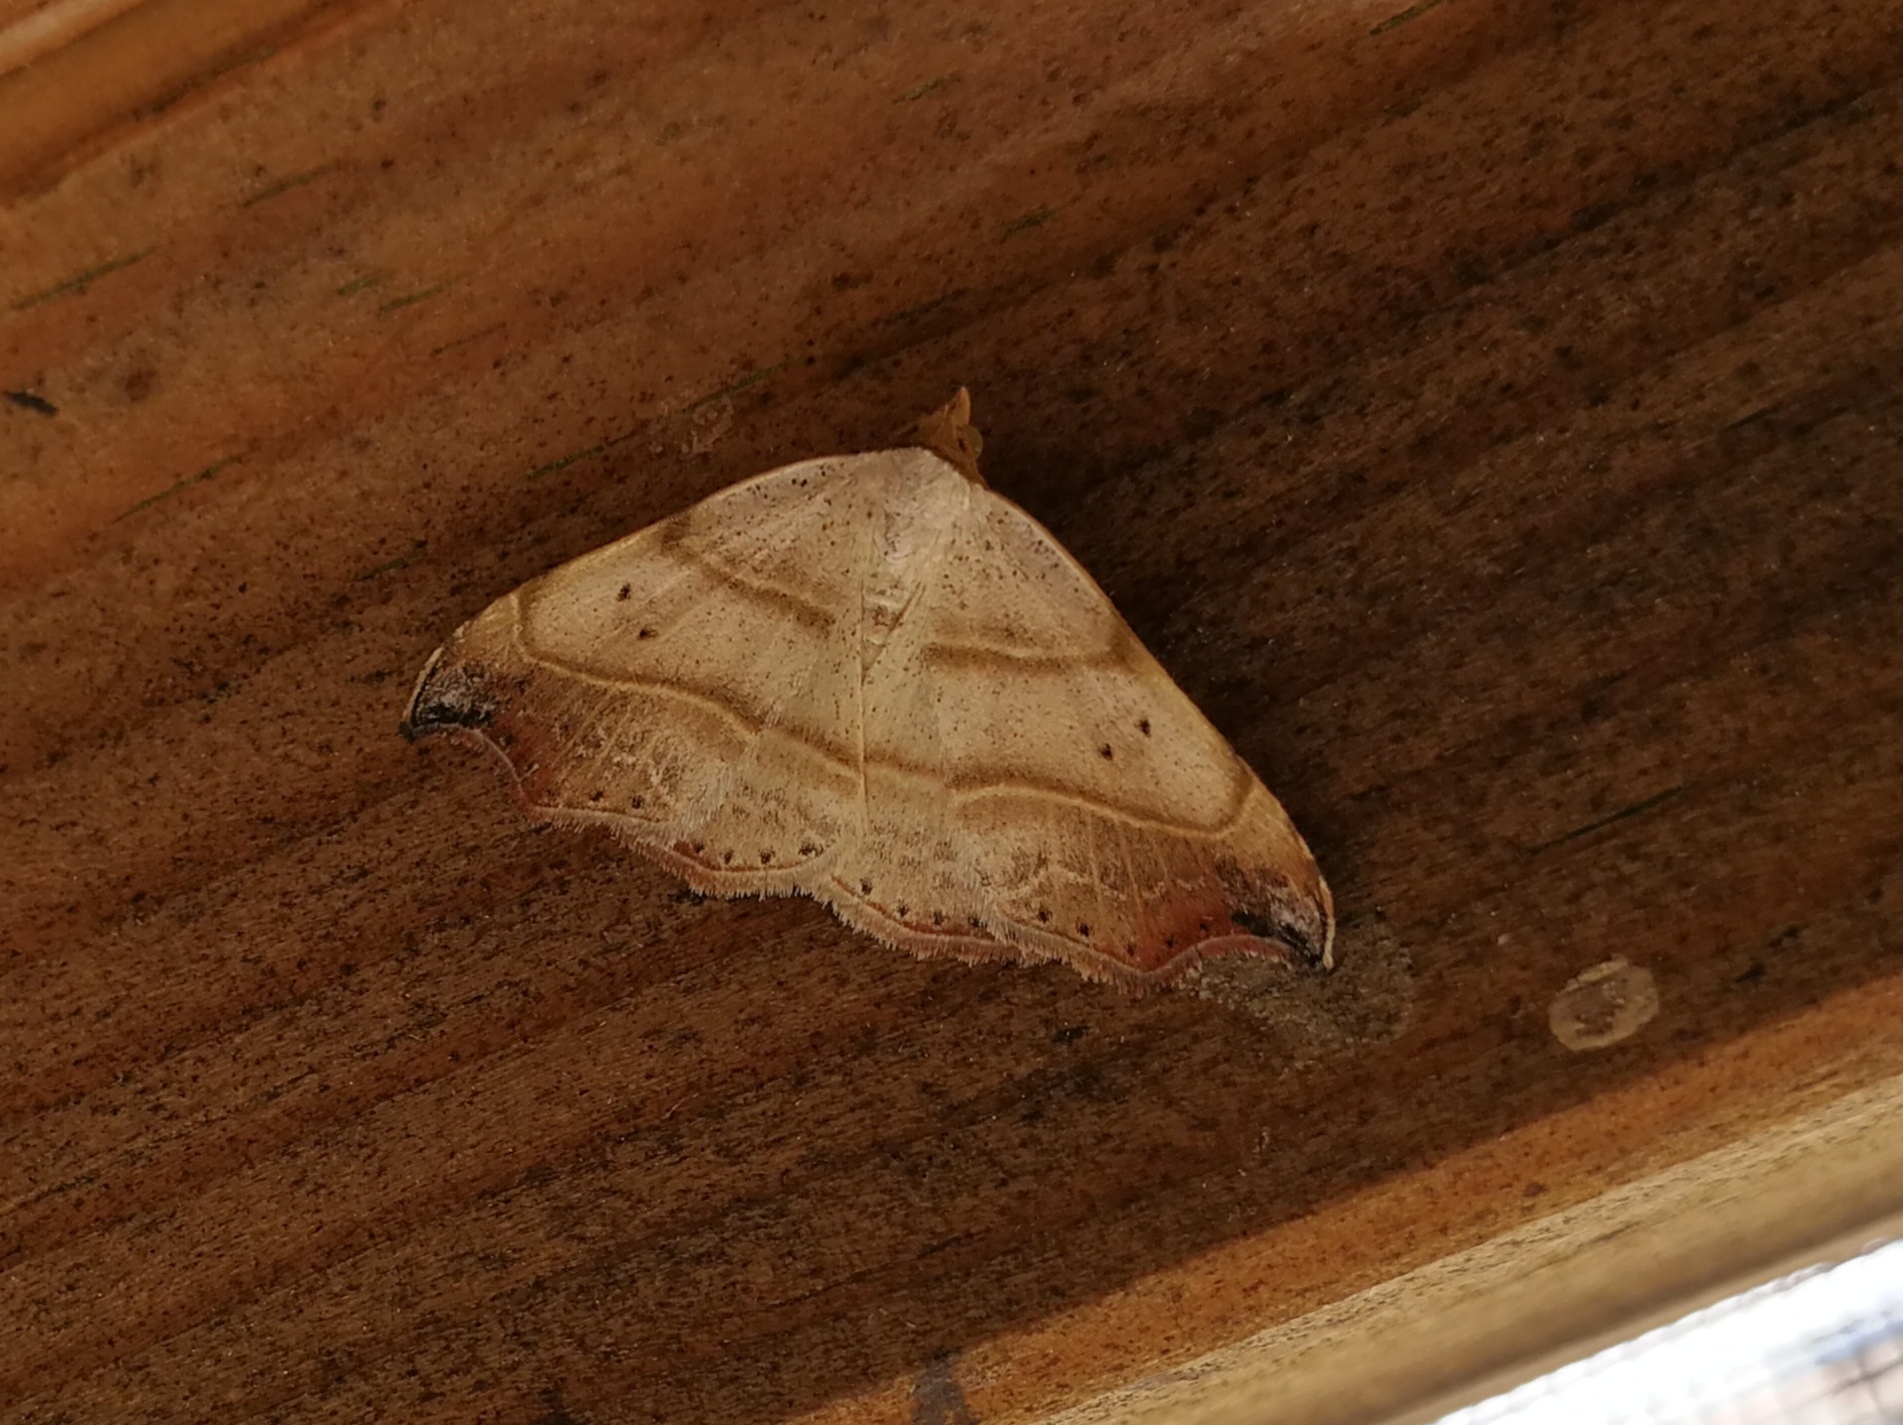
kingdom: Animalia
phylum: Arthropoda
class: Insecta
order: Lepidoptera
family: Erebidae
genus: Laspeyria
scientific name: Laspeyria flexula
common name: Beautiful hook-tip
